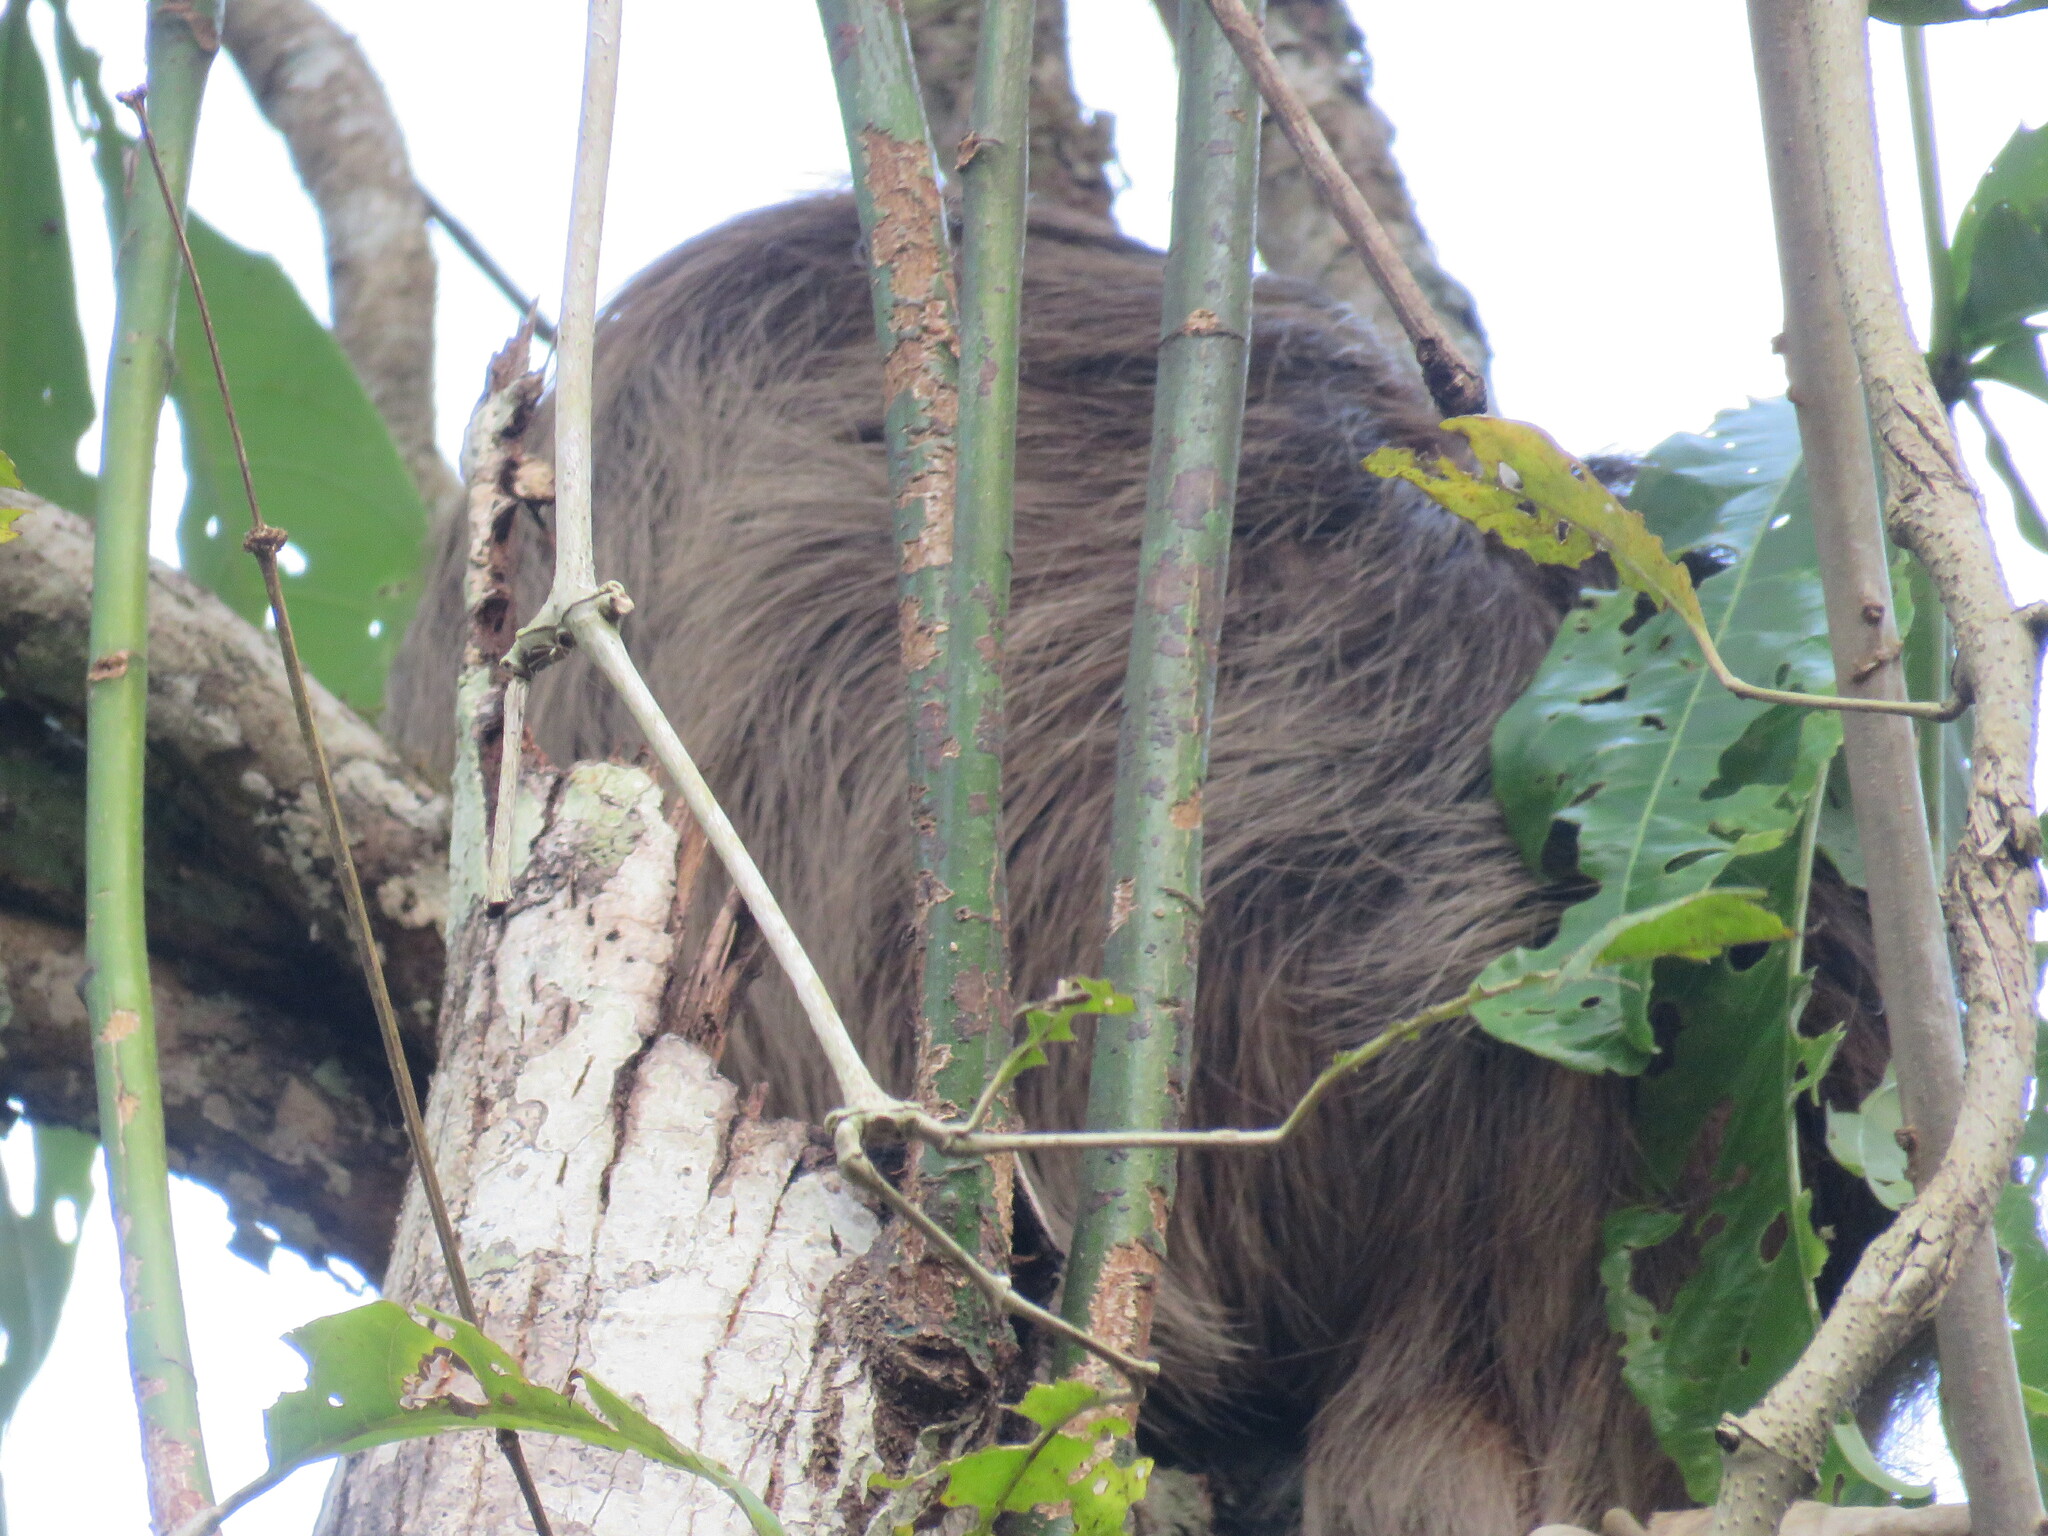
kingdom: Animalia
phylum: Chordata
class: Mammalia
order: Pilosa
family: Megalonychidae
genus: Choloepus
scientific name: Choloepus hoffmanni
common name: Hoffmann's two-toed sloth
